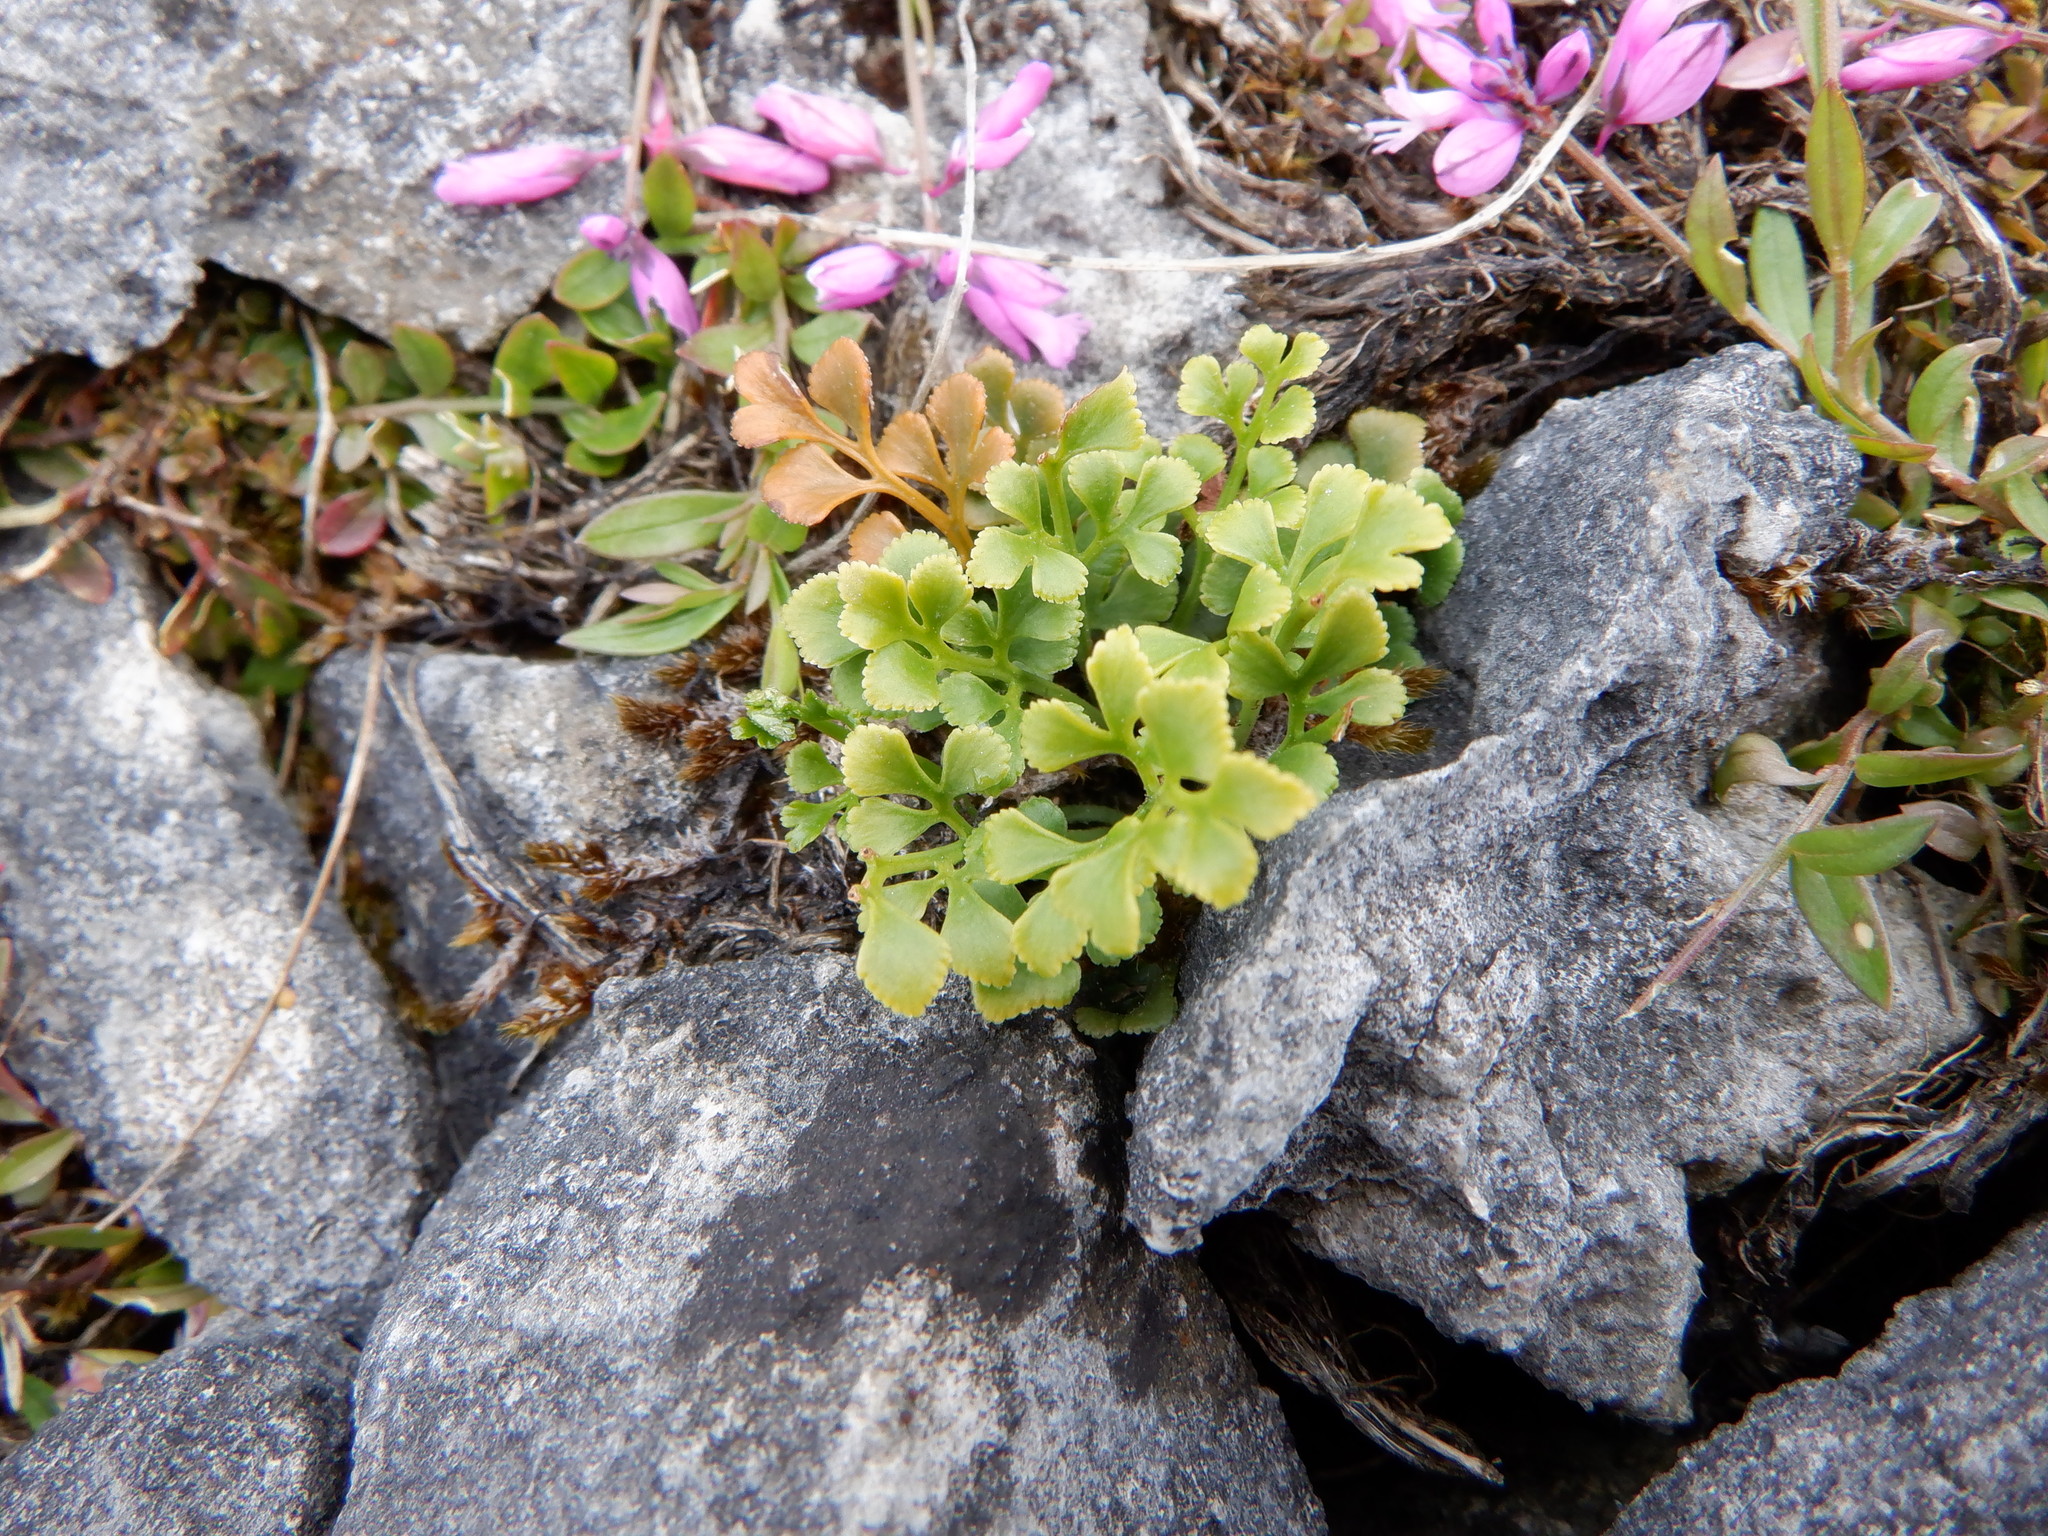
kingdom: Plantae
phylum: Tracheophyta
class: Polypodiopsida
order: Polypodiales
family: Aspleniaceae
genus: Asplenium
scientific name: Asplenium ruta-muraria
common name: Wall-rue
